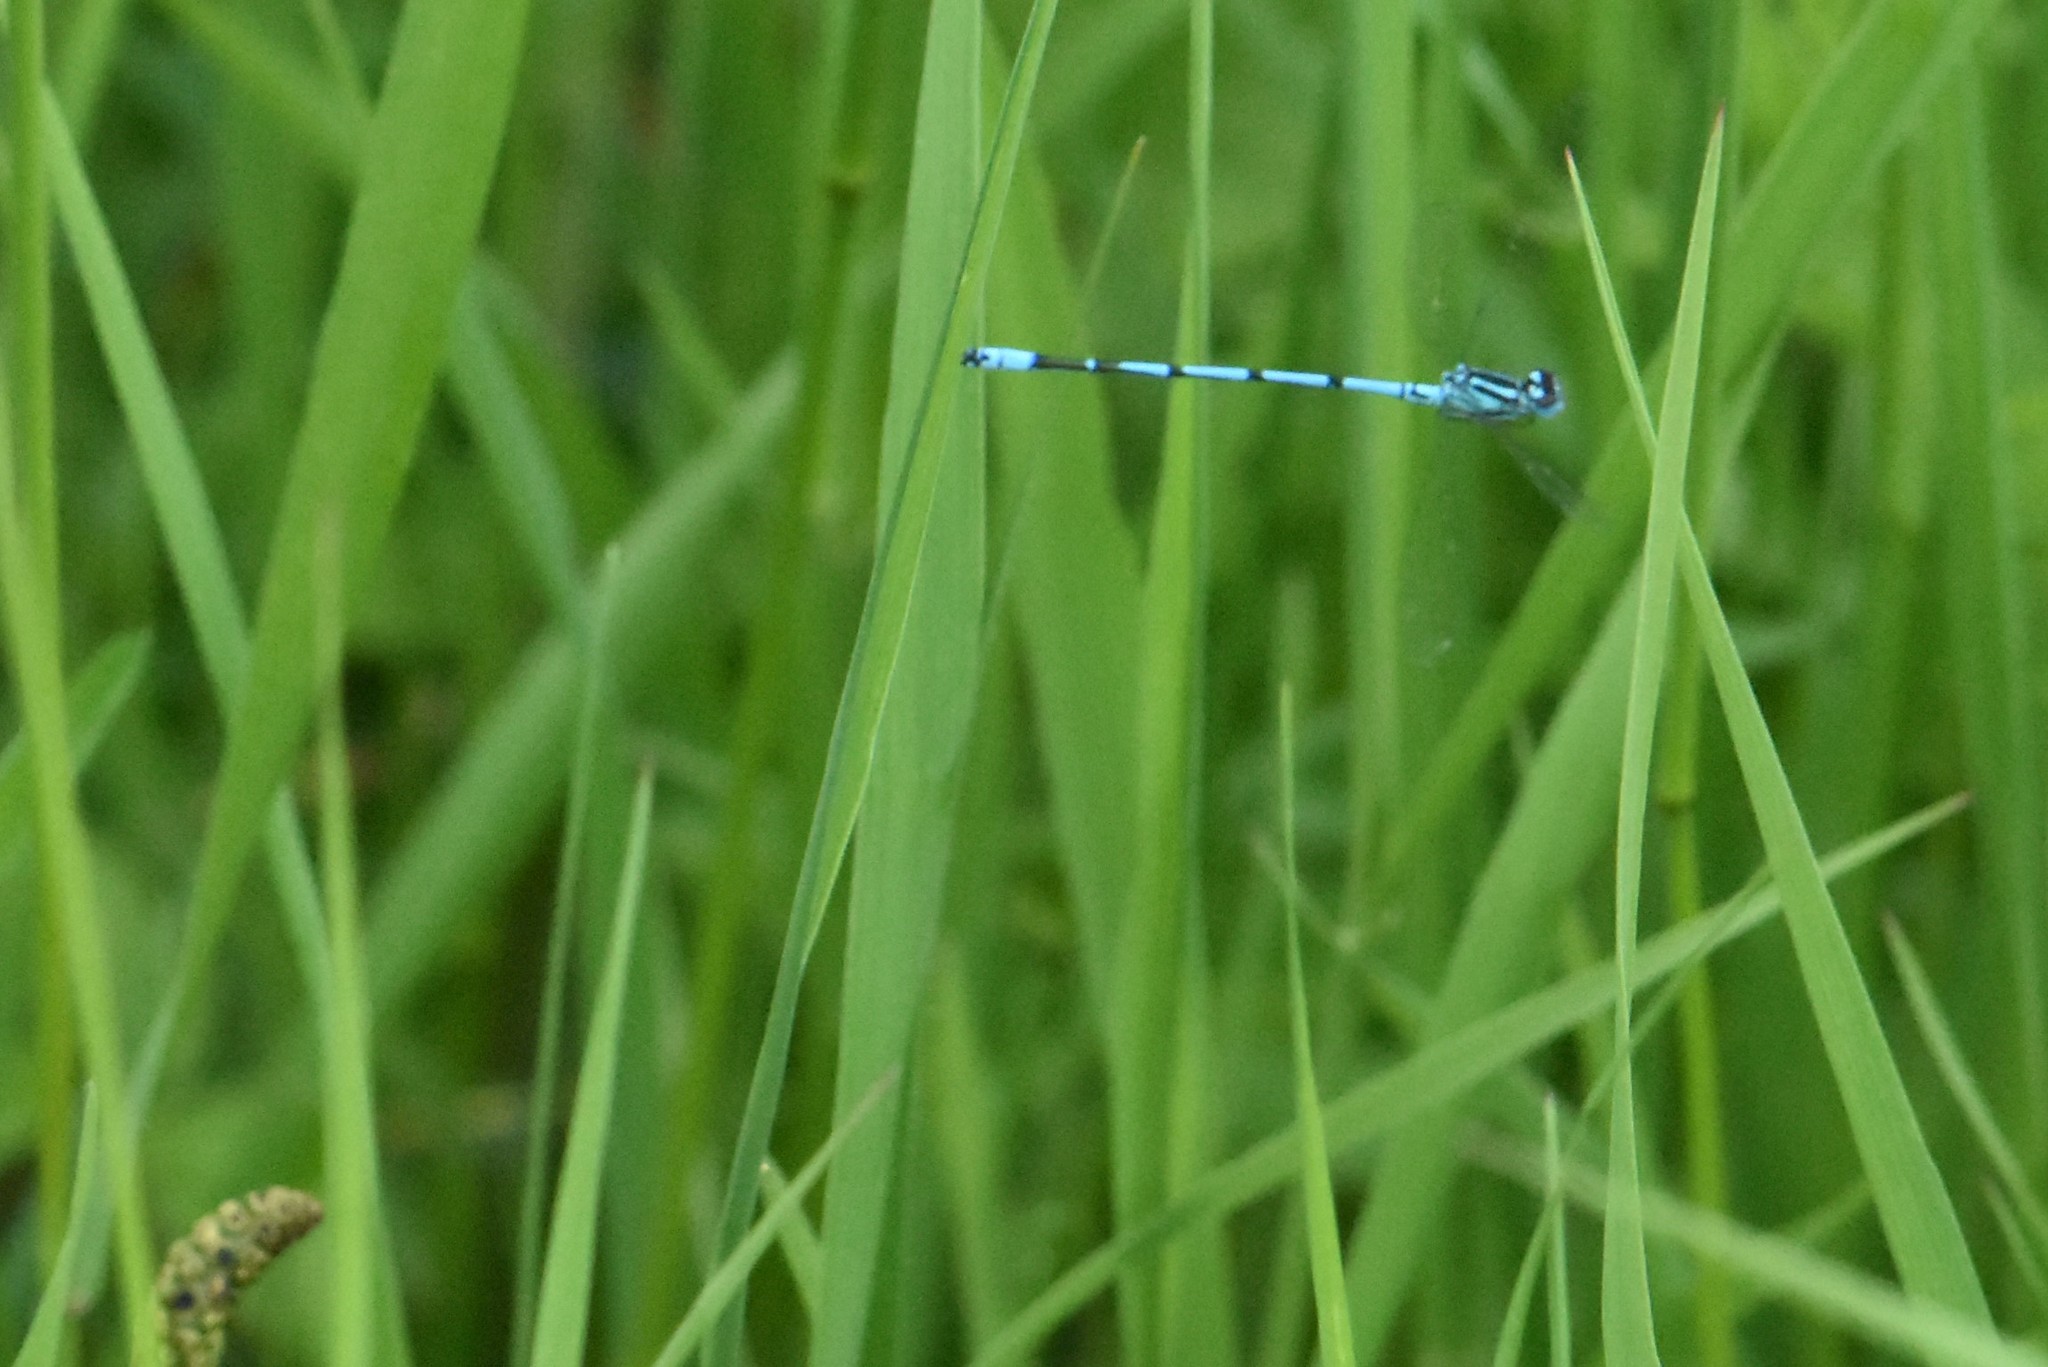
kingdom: Animalia
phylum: Arthropoda
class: Insecta
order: Odonata
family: Coenagrionidae
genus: Coenagrion
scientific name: Coenagrion puella
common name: Azure damselfly
